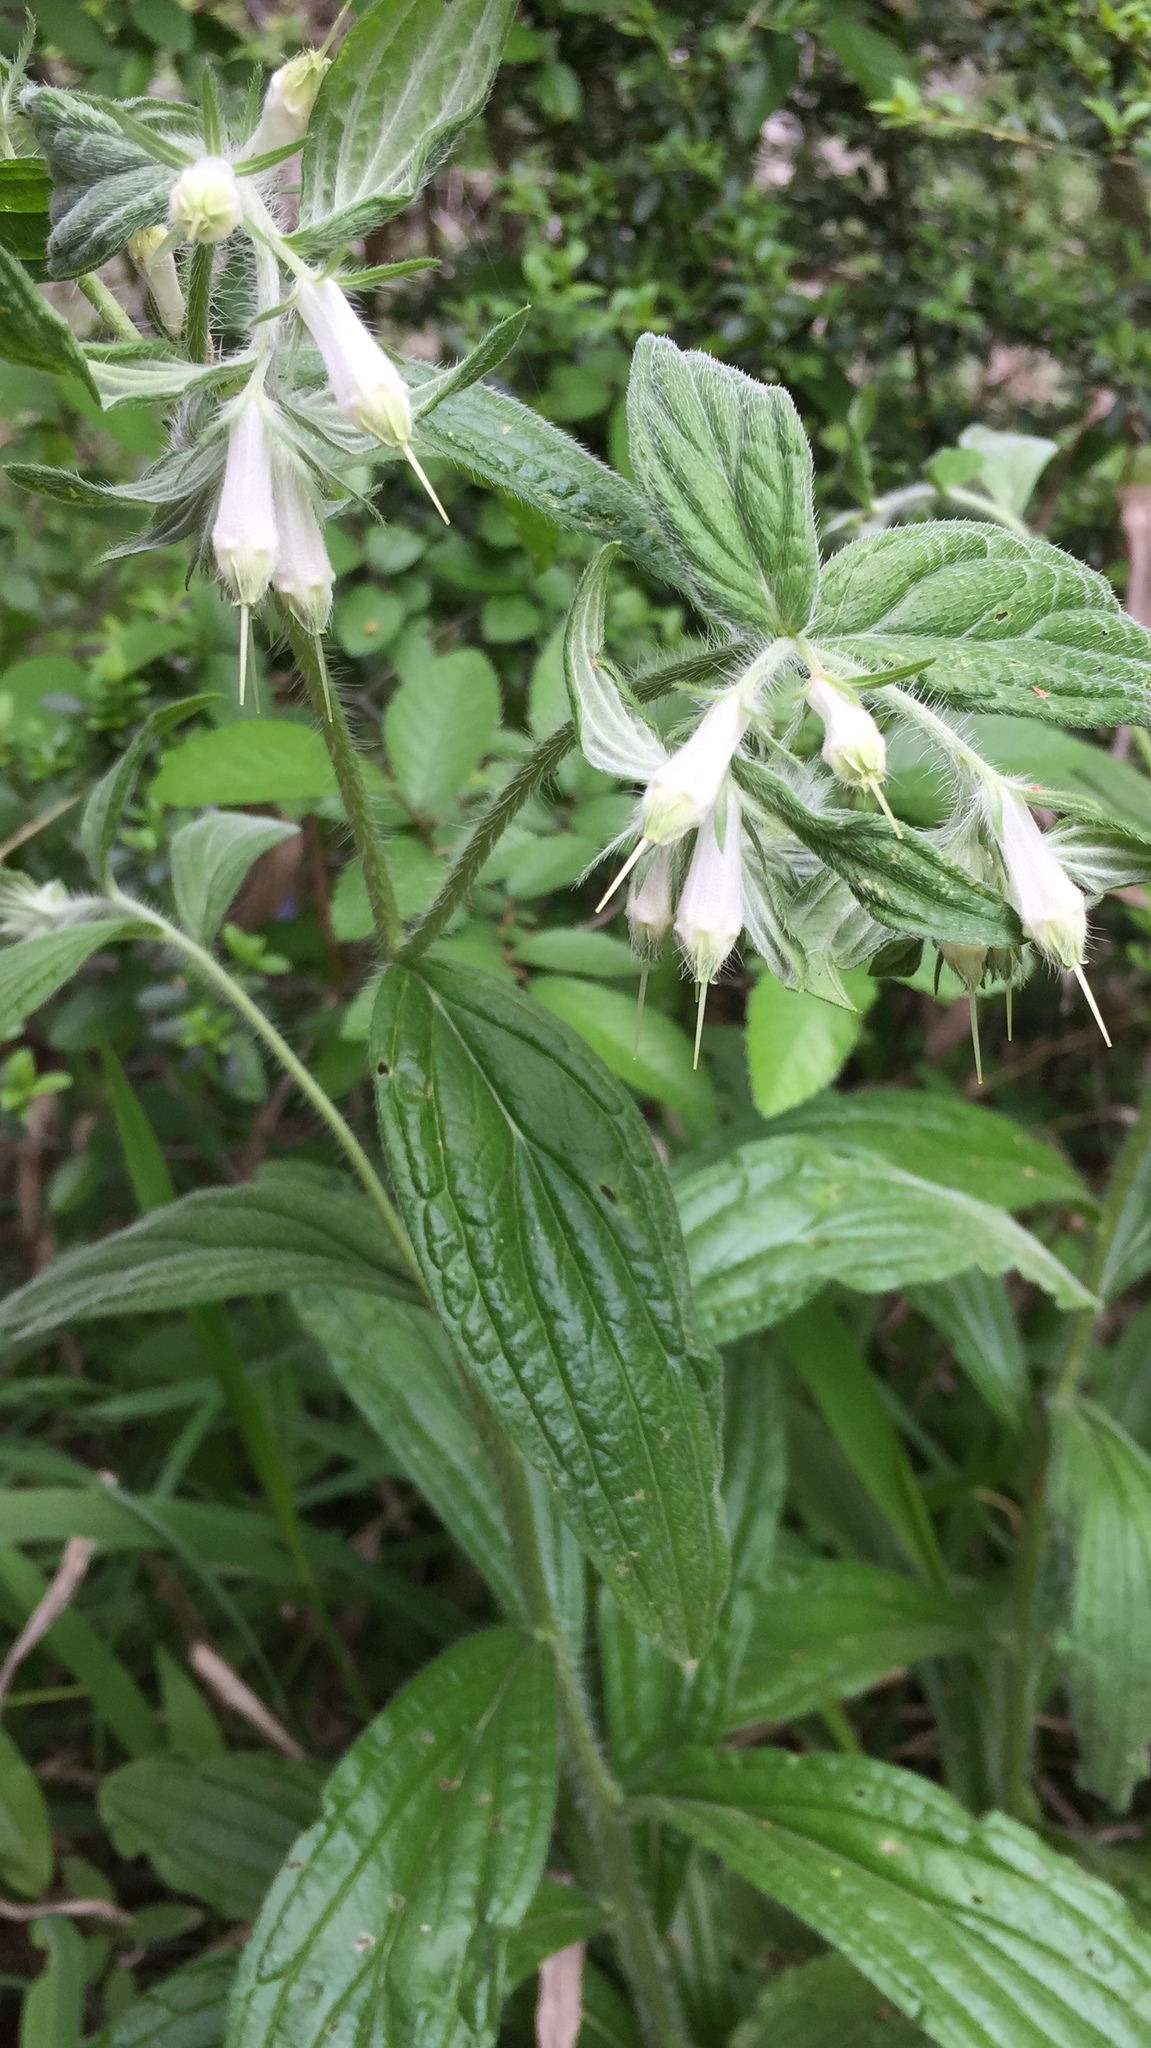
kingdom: Plantae
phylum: Tracheophyta
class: Magnoliopsida
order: Boraginales
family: Boraginaceae
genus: Lithospermum
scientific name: Lithospermum caroliniense
